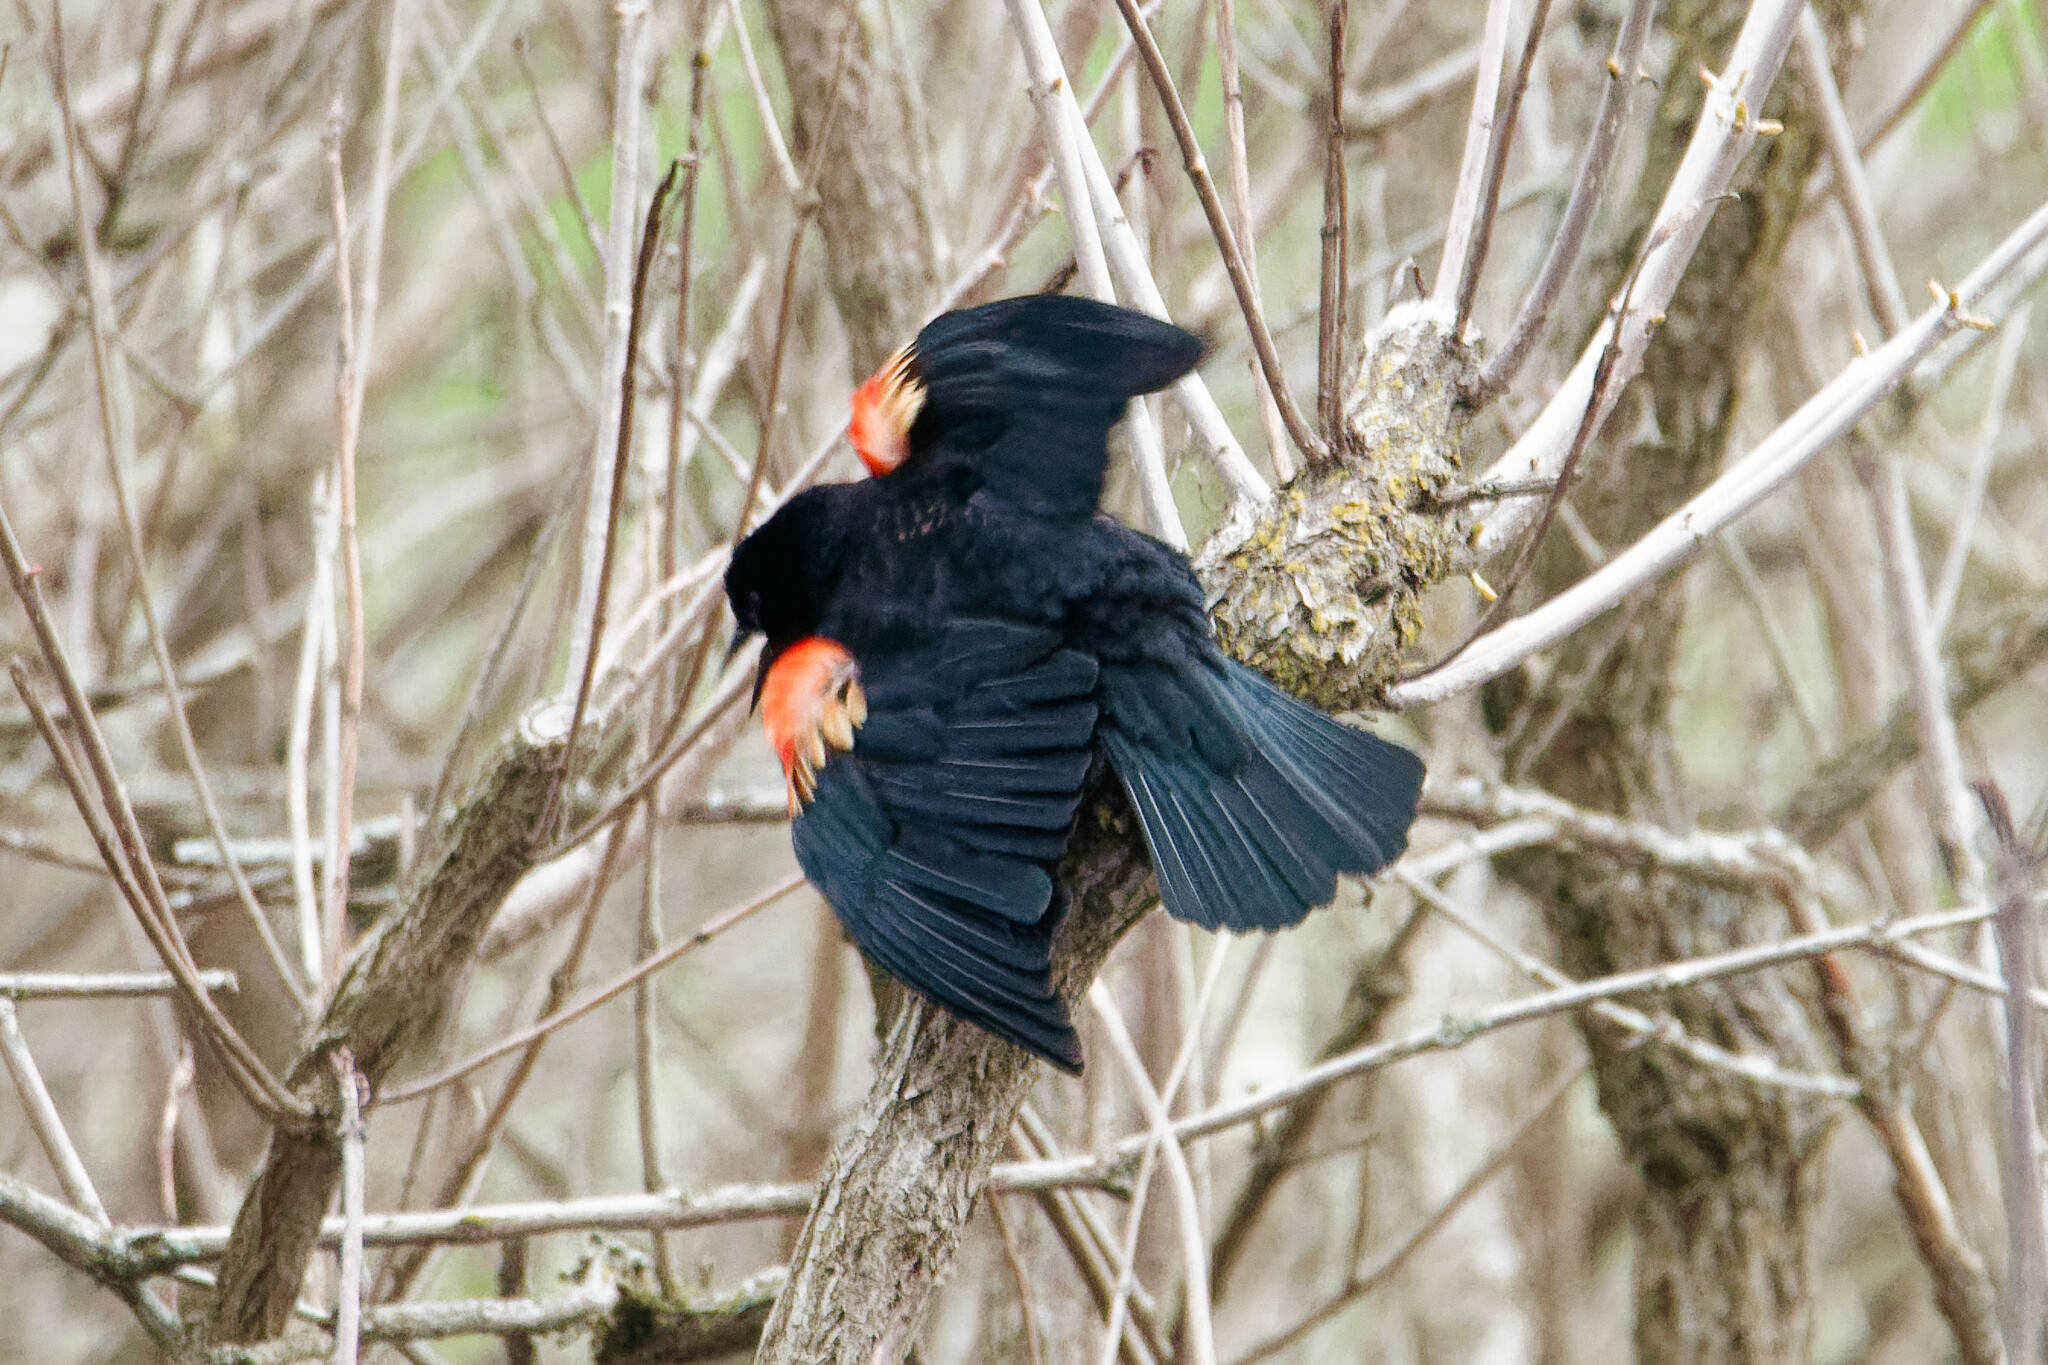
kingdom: Animalia
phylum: Chordata
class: Aves
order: Passeriformes
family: Icteridae
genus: Agelaius
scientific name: Agelaius phoeniceus
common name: Red-winged blackbird
